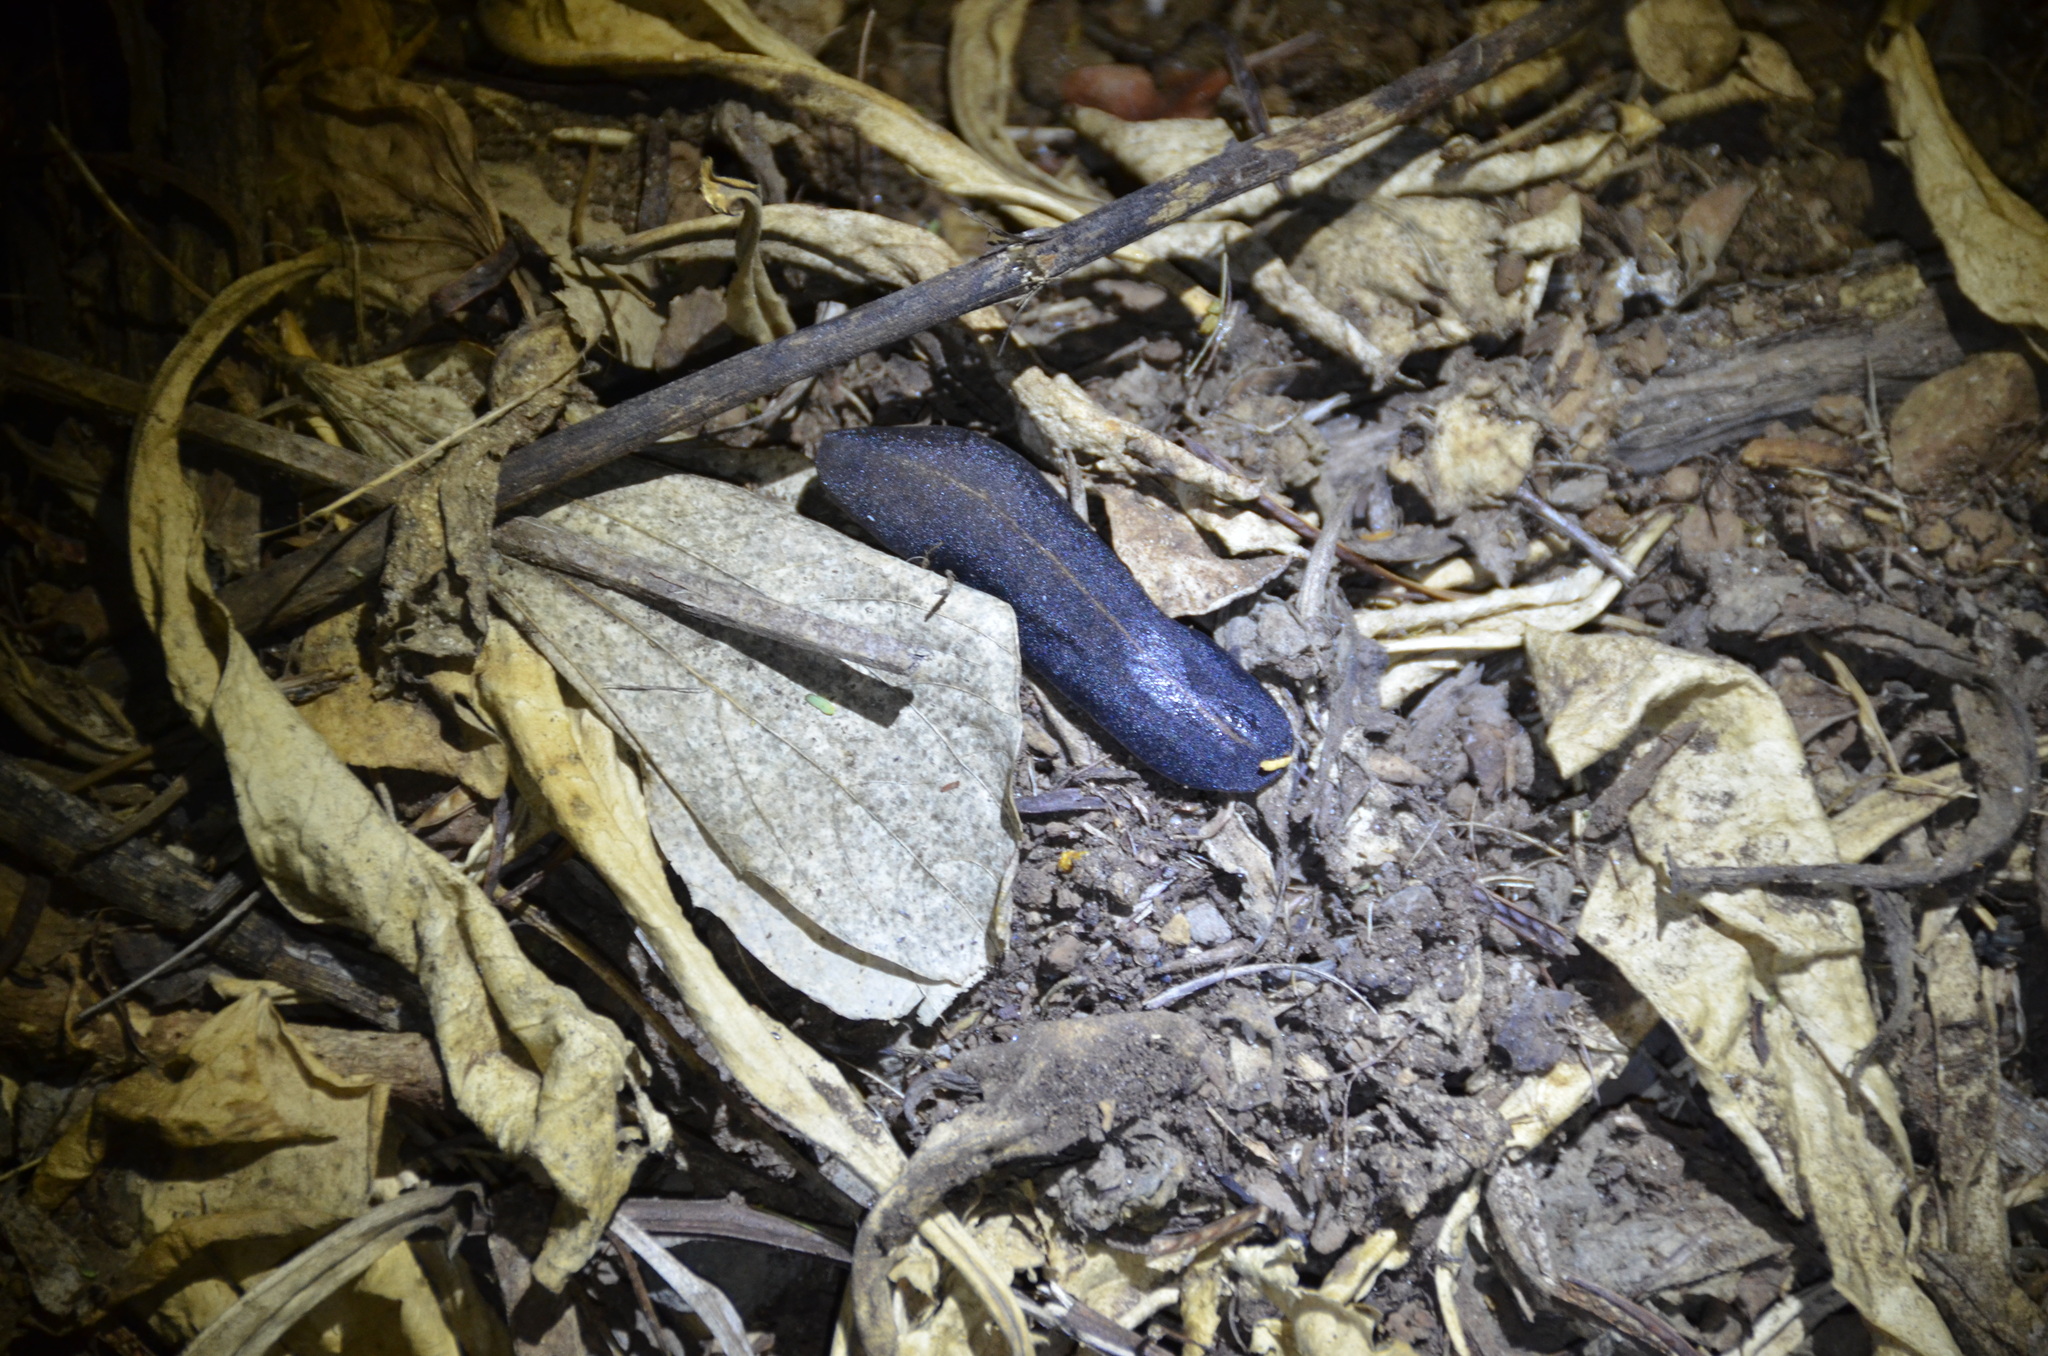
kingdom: Animalia
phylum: Mollusca
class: Gastropoda
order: Systellommatophora
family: Veronicellidae
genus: Laevicaulis
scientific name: Laevicaulis alte
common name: Tropical leatherleaf
